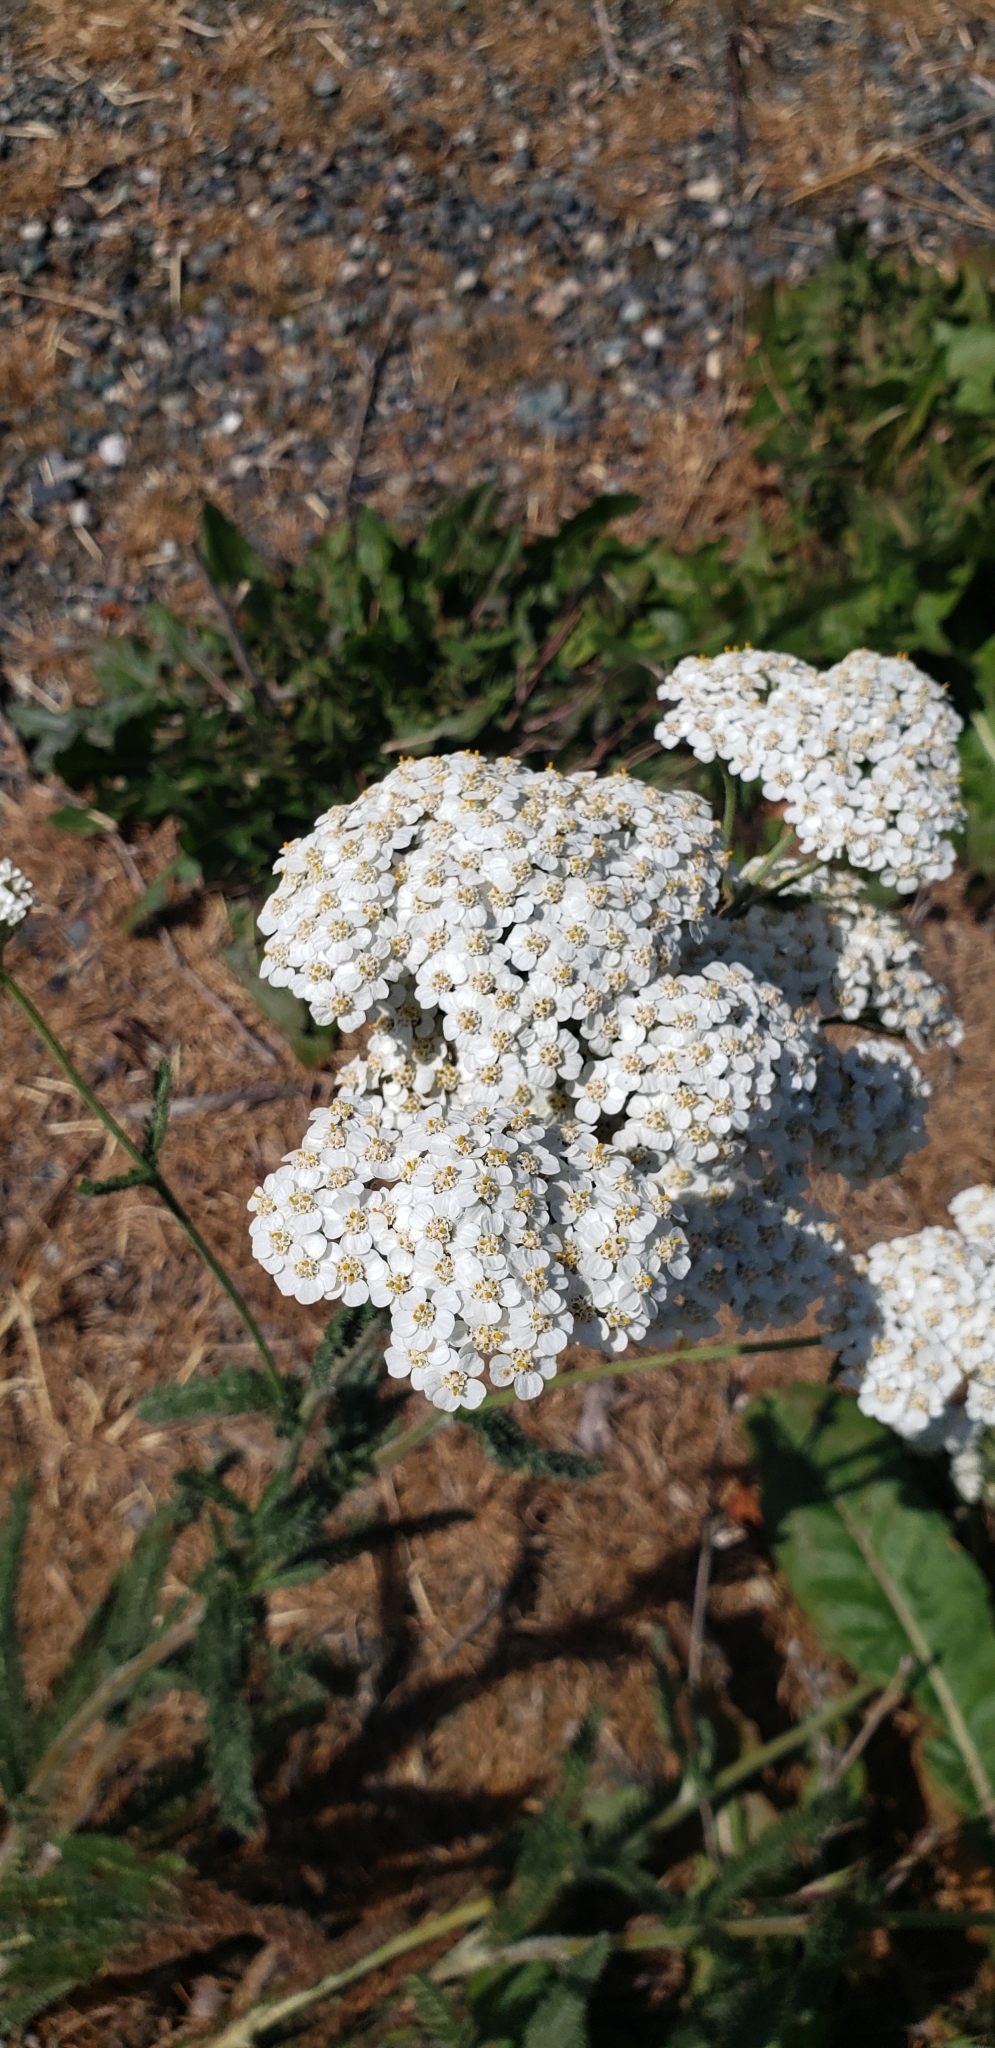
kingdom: Plantae
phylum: Tracheophyta
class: Magnoliopsida
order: Asterales
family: Asteraceae
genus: Achillea
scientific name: Achillea millefolium
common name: Yarrow
